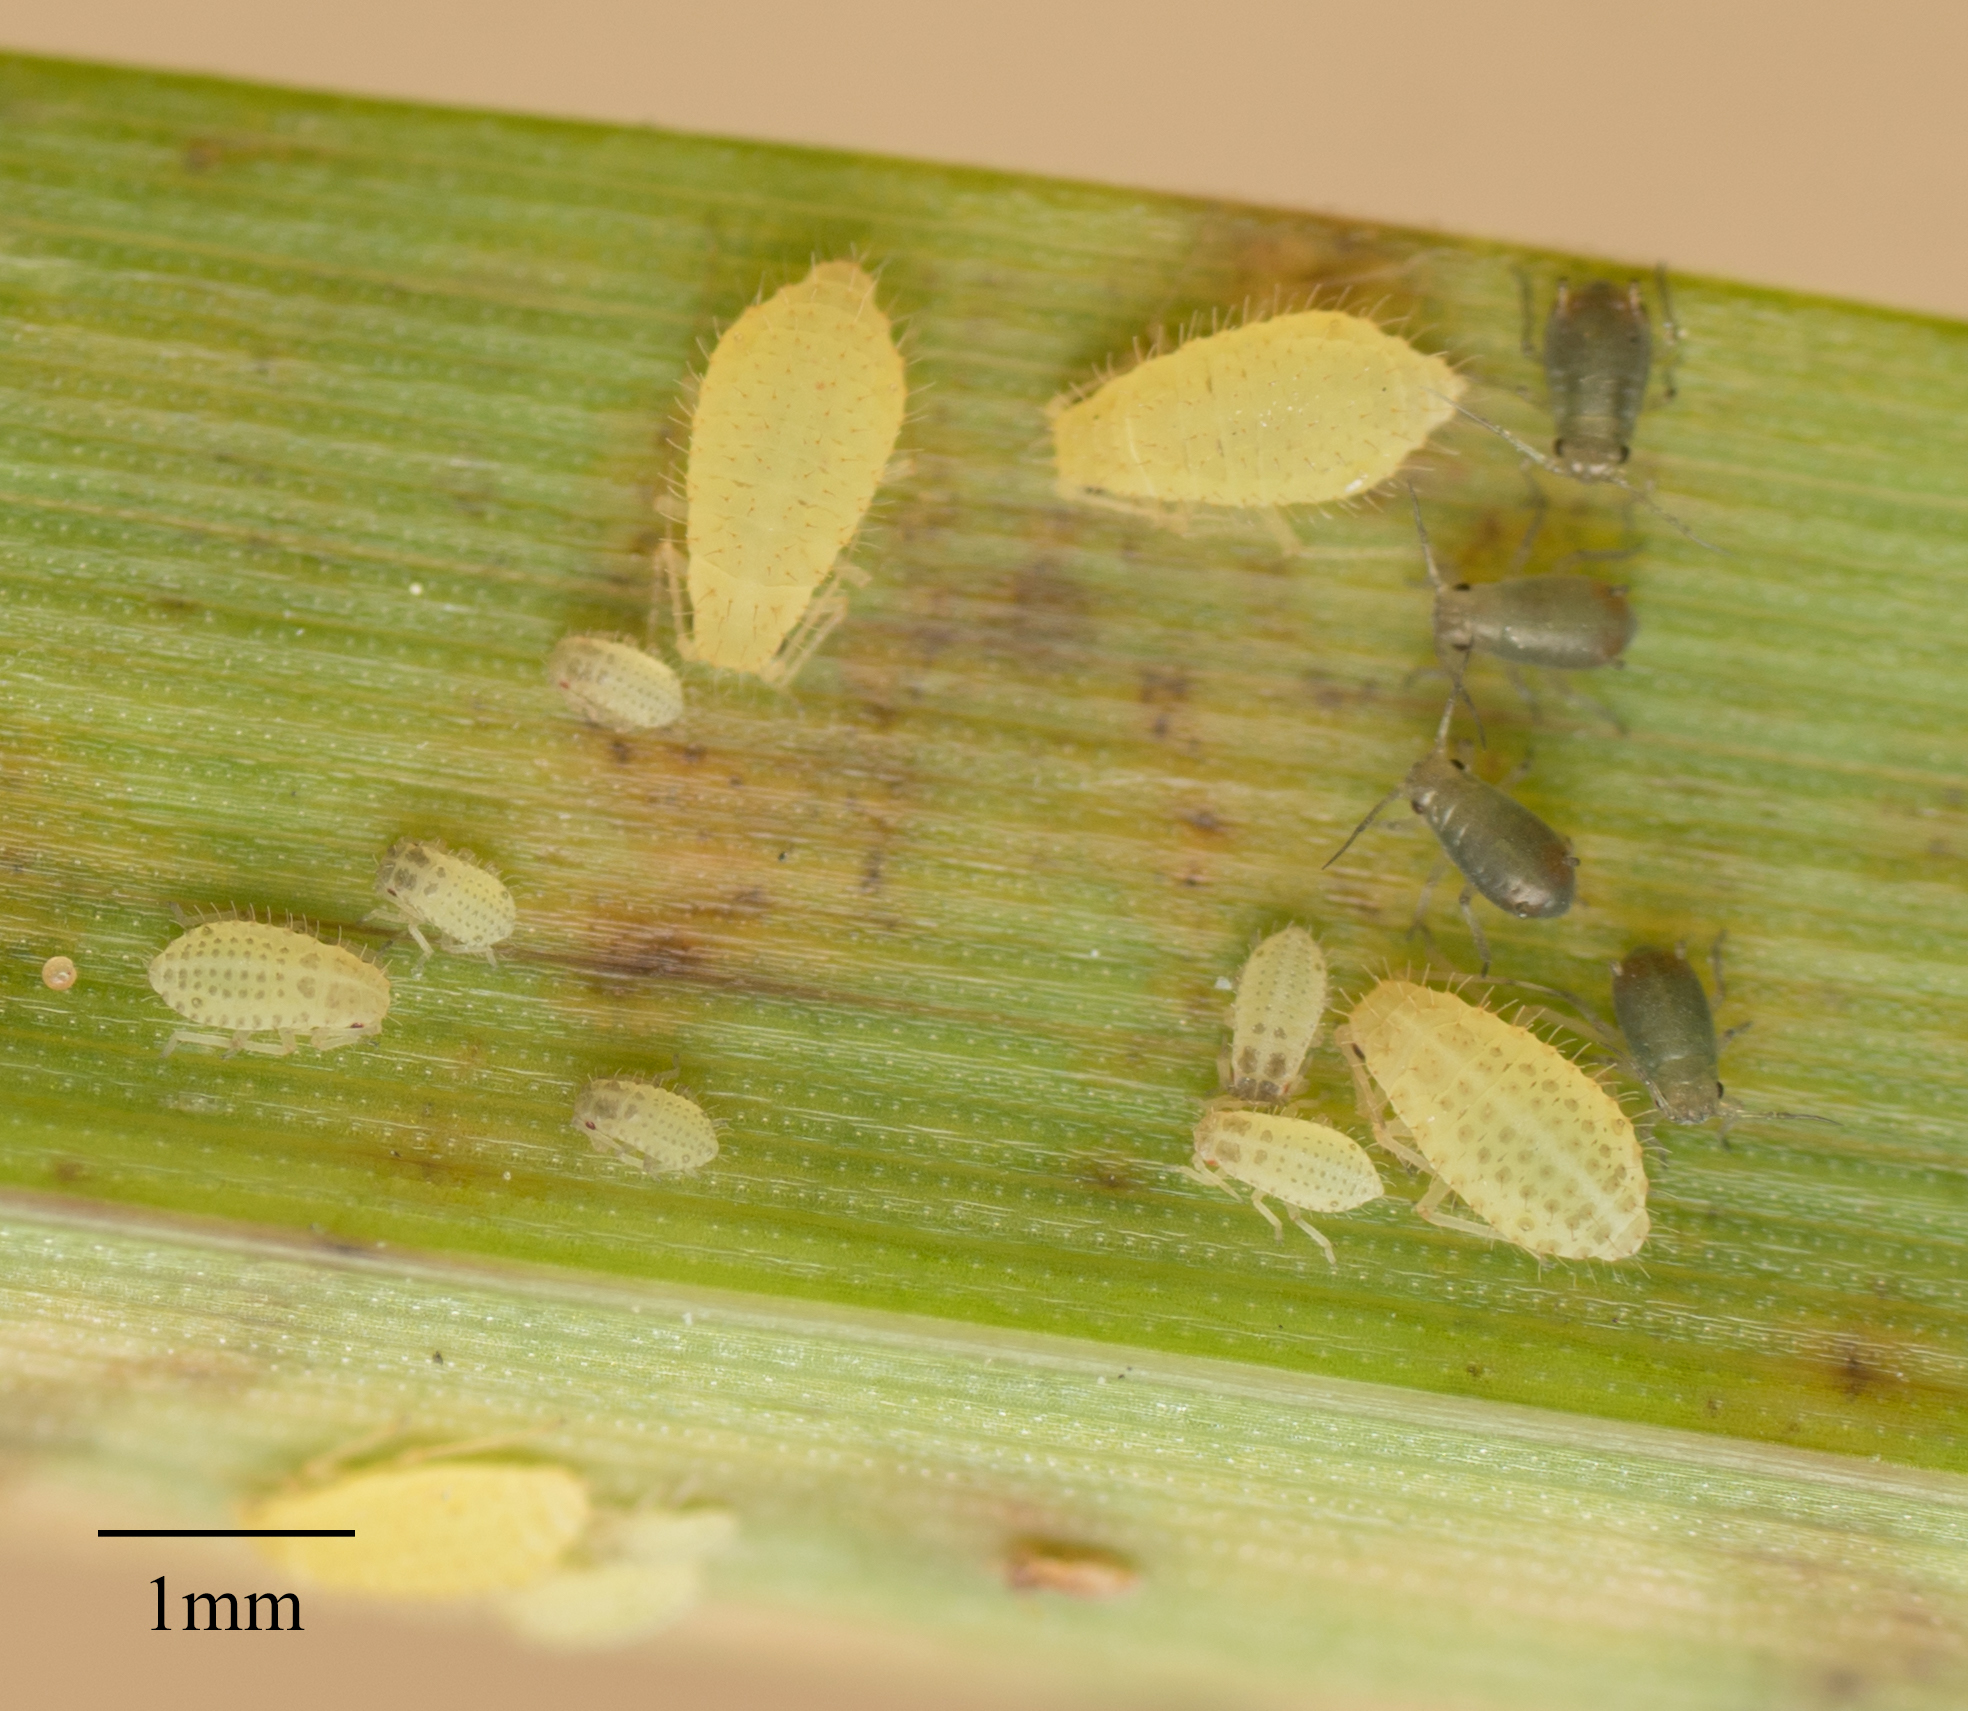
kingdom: Animalia
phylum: Arthropoda
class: Insecta
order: Hemiptera
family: Aphididae
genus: Sipha
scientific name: Sipha flava
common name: Yellow sugarcane aphid
